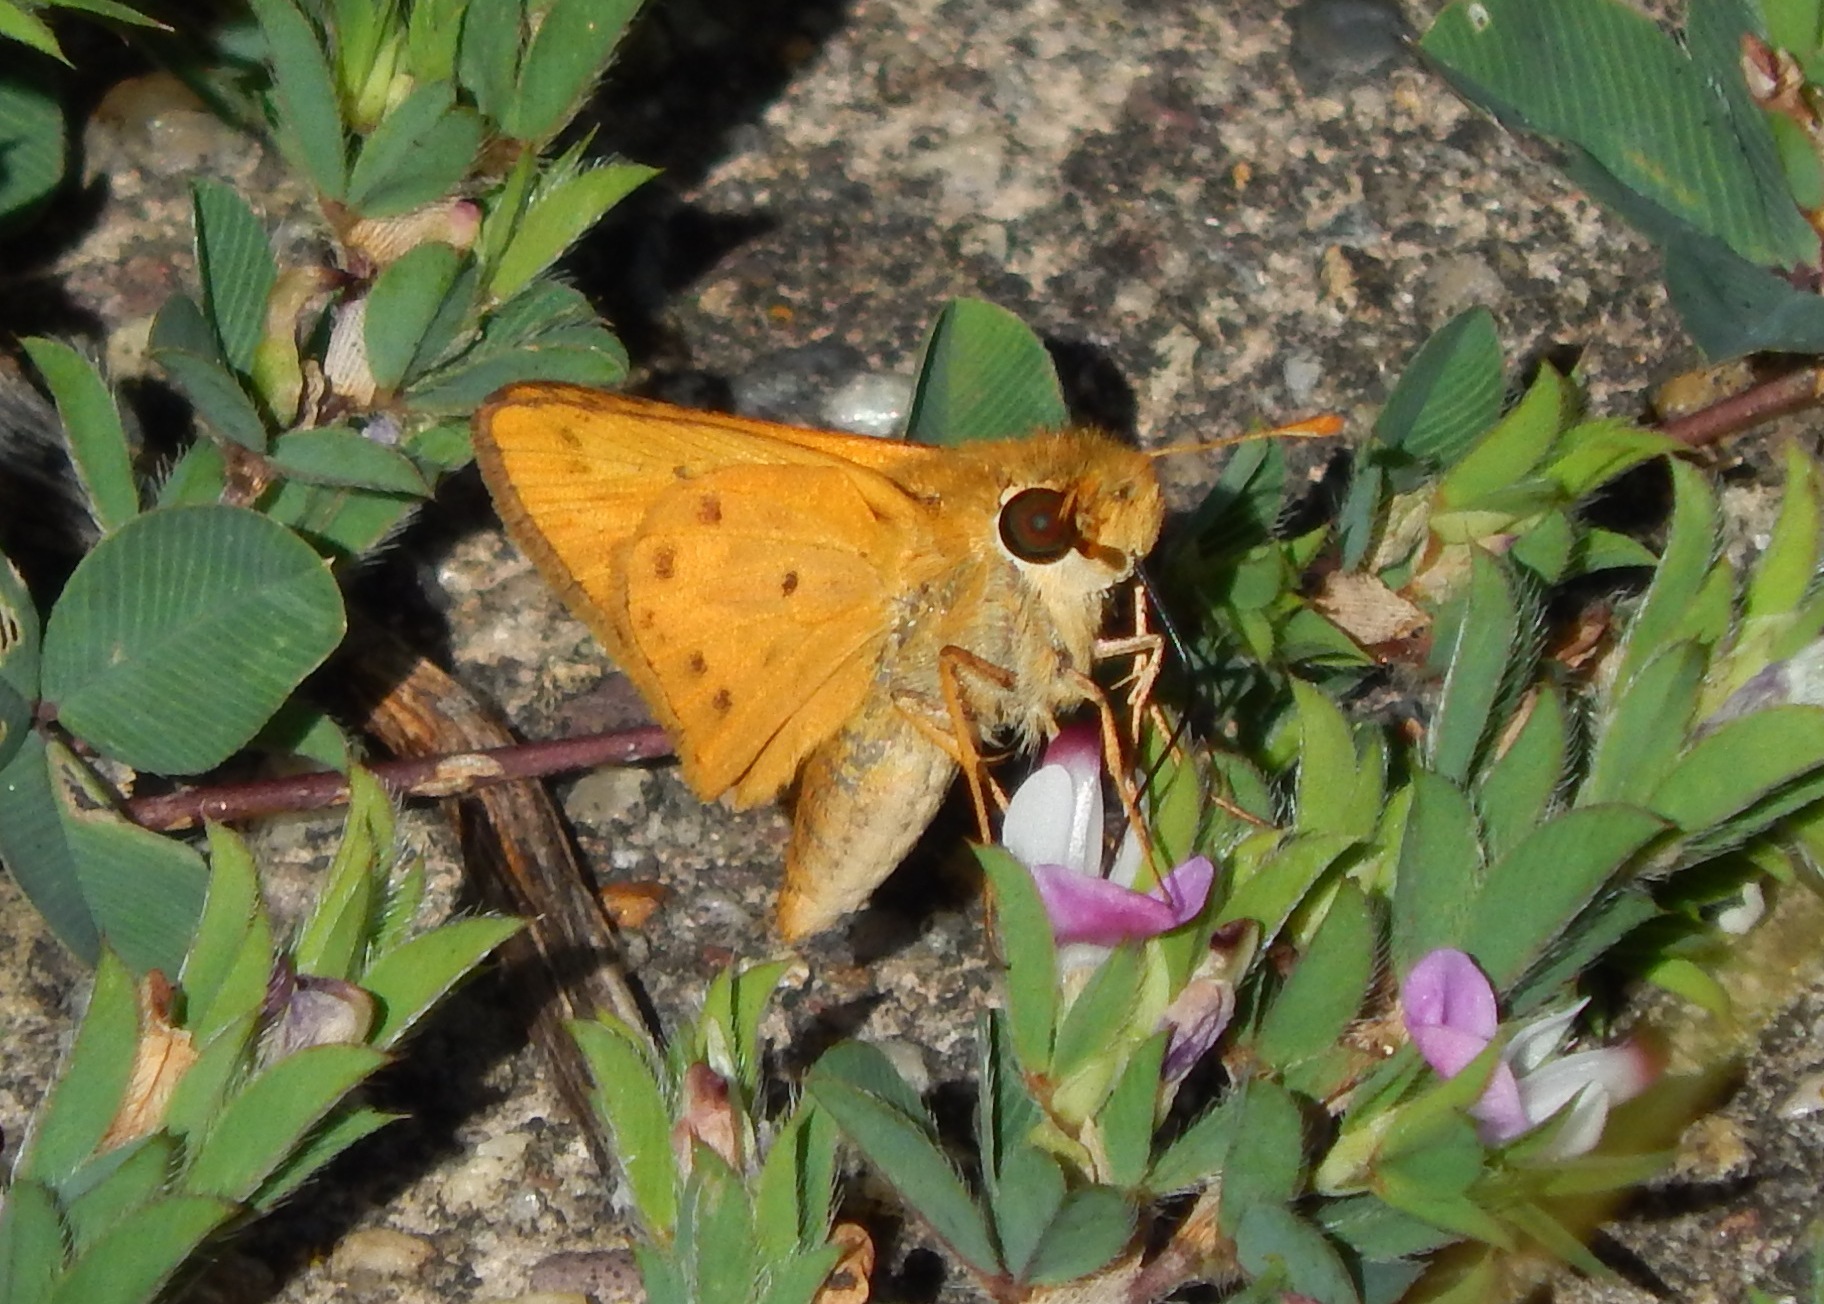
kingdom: Animalia
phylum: Arthropoda
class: Insecta
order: Lepidoptera
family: Hesperiidae
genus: Hylephila
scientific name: Hylephila phyleus
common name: Fiery skipper
